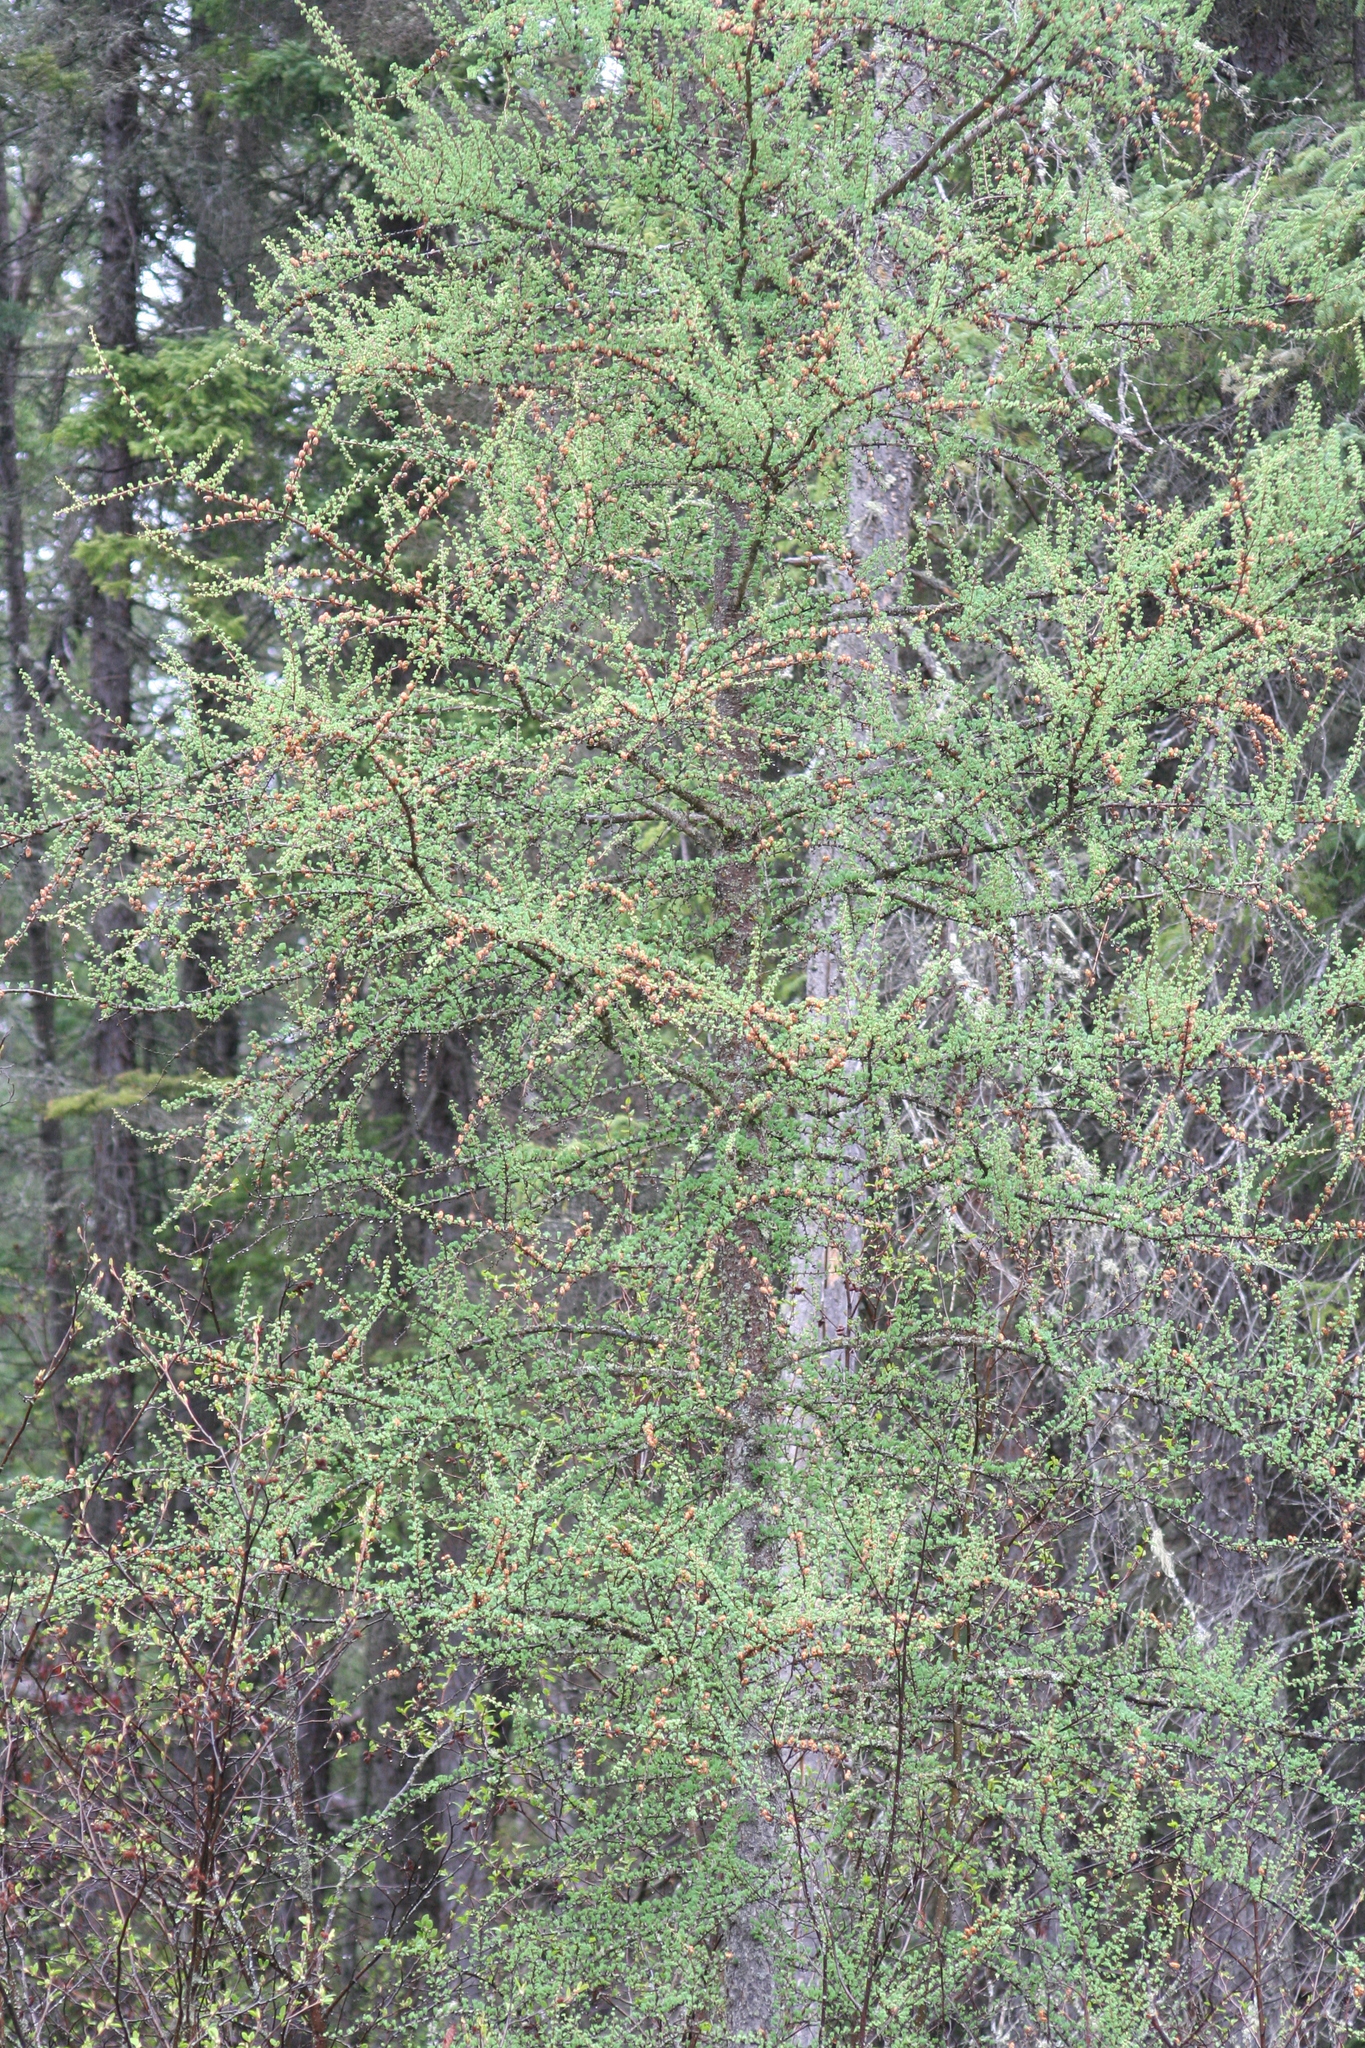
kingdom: Plantae
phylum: Tracheophyta
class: Pinopsida
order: Pinales
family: Pinaceae
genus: Larix
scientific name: Larix laricina
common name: American larch
